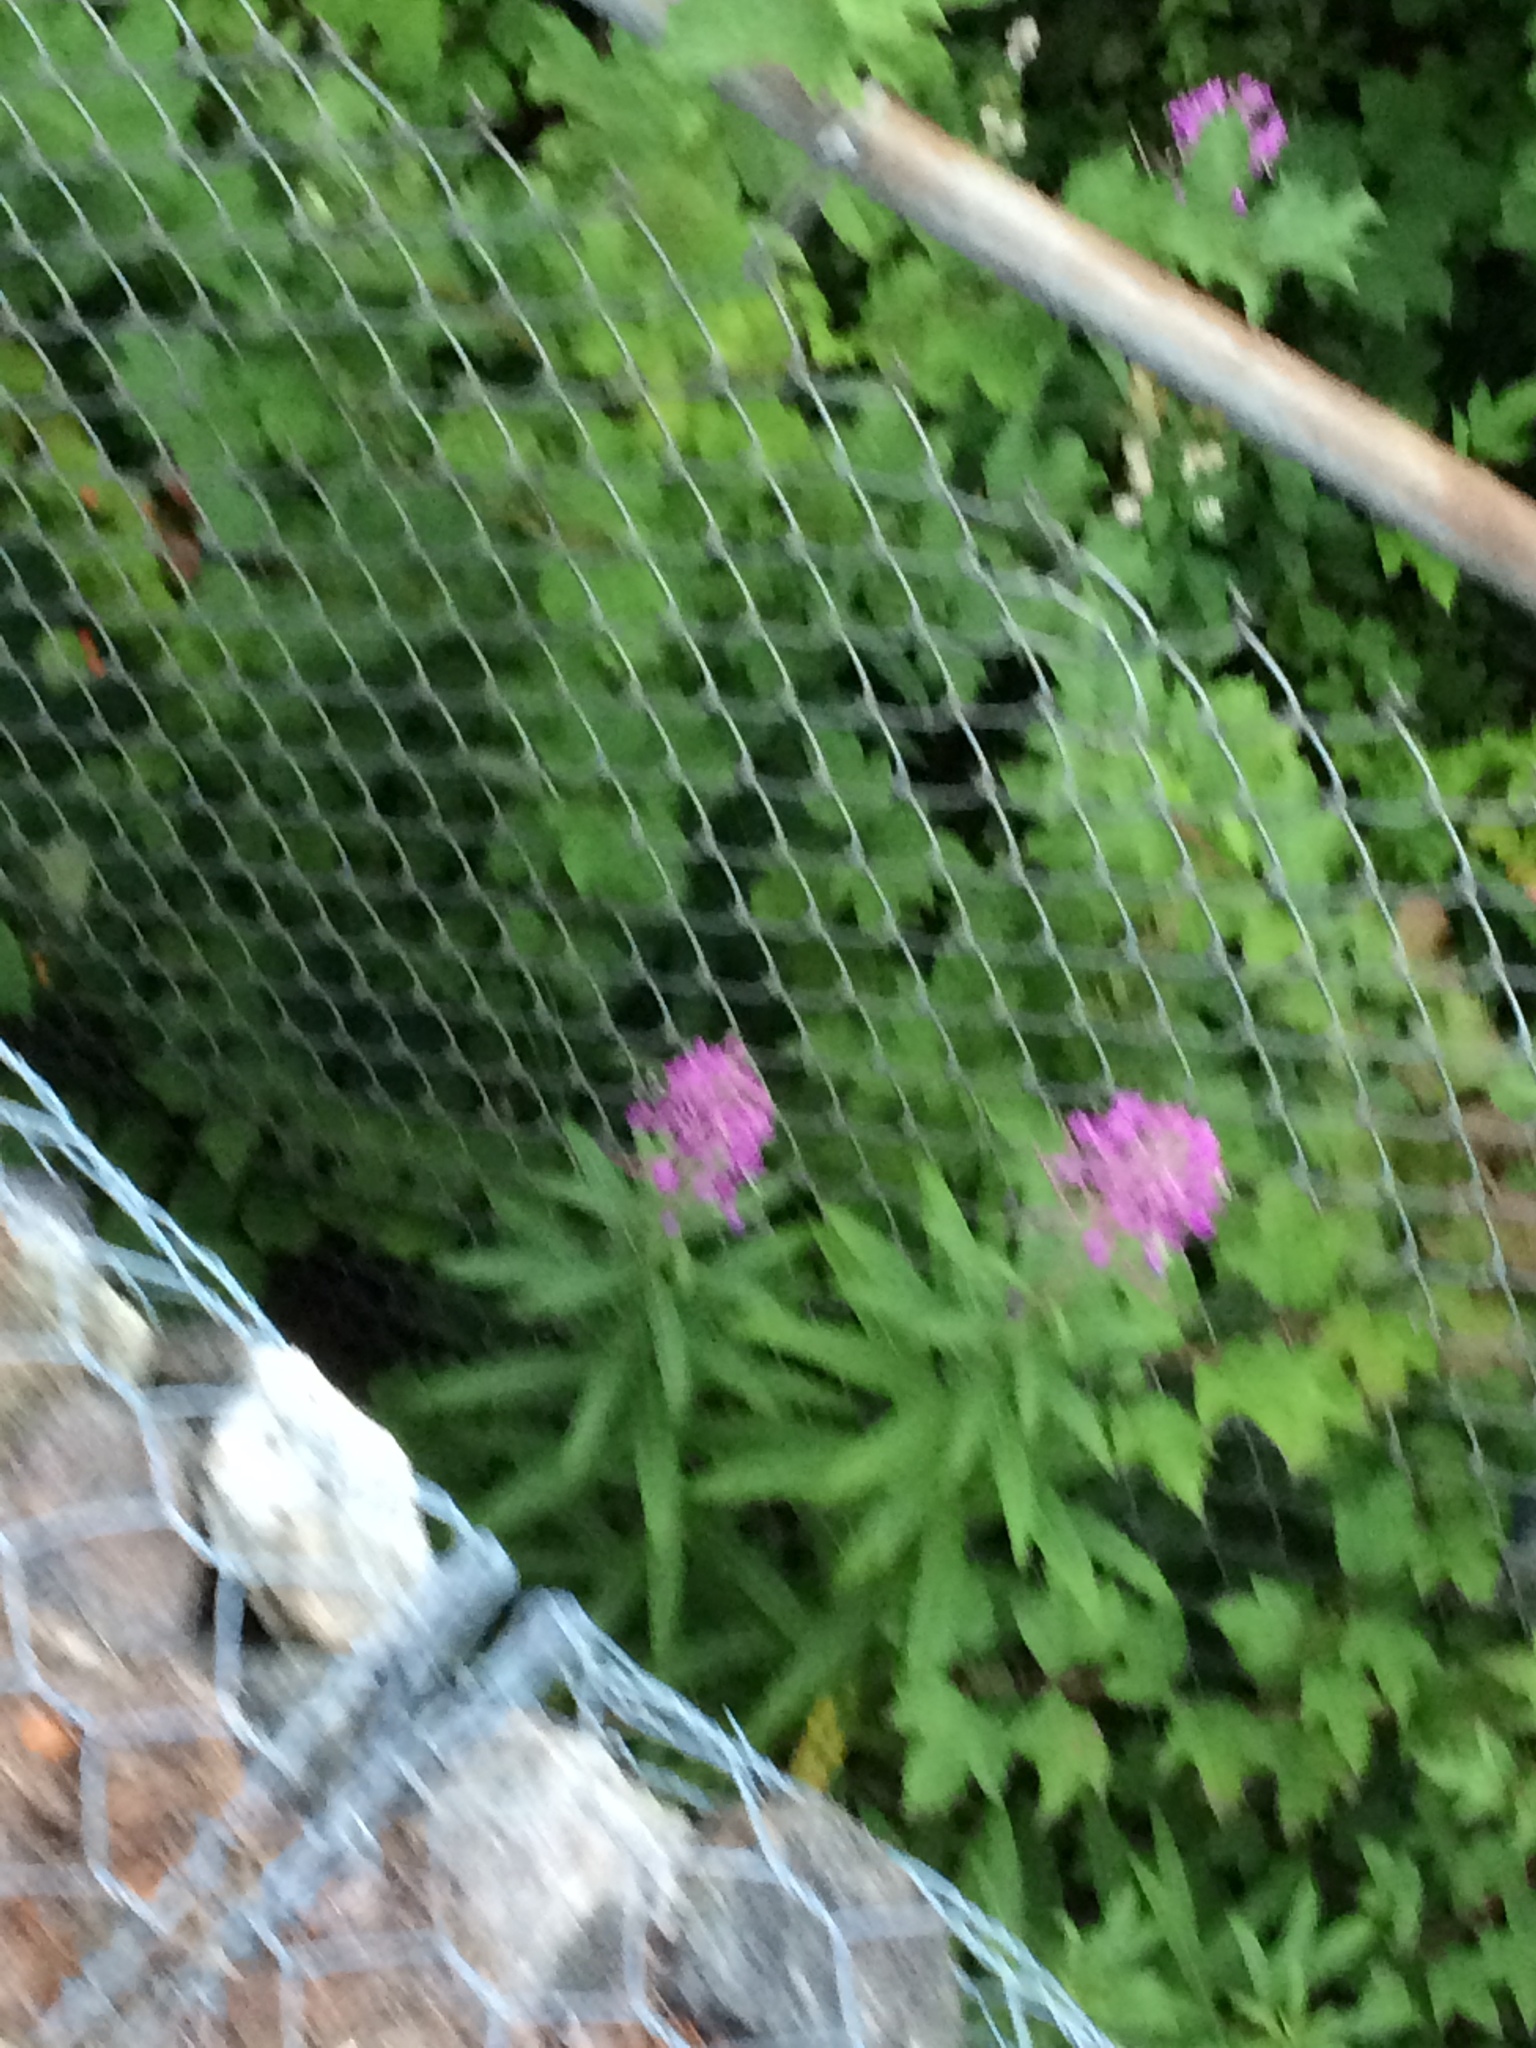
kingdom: Plantae
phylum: Tracheophyta
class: Magnoliopsida
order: Myrtales
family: Onagraceae
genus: Chamaenerion
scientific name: Chamaenerion angustifolium
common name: Fireweed
